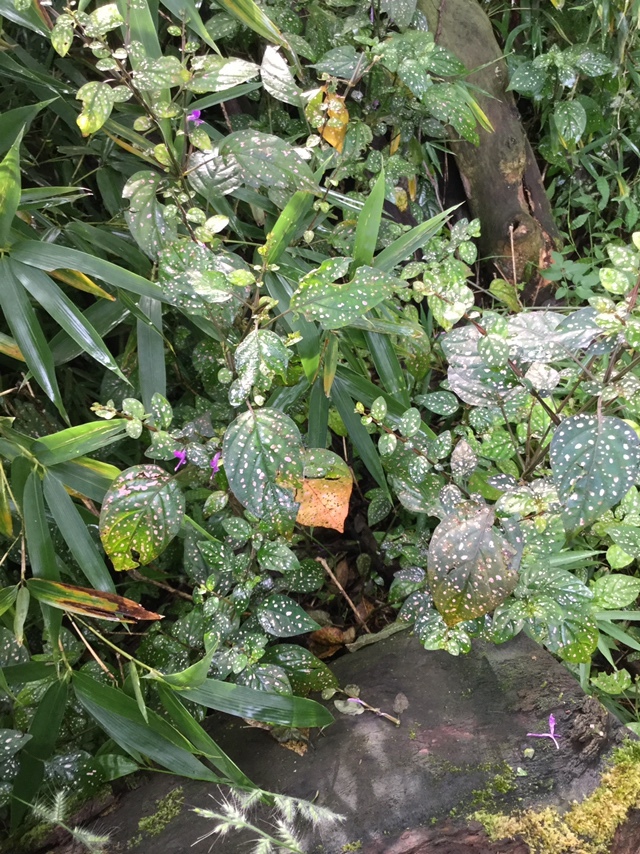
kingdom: Plantae
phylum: Tracheophyta
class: Magnoliopsida
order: Lamiales
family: Acanthaceae
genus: Hypoestes
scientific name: Hypoestes phyllostachya
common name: Polkadot-plant
